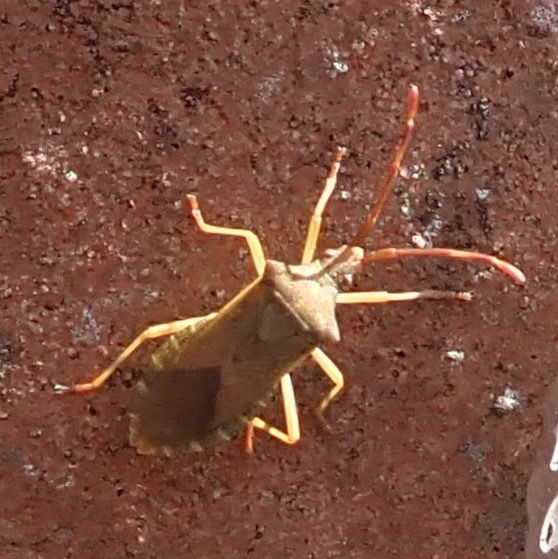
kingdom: Animalia
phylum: Arthropoda
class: Insecta
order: Hemiptera
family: Coreidae
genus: Gonocerus
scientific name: Gonocerus acuteangulatus
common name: Box bug
